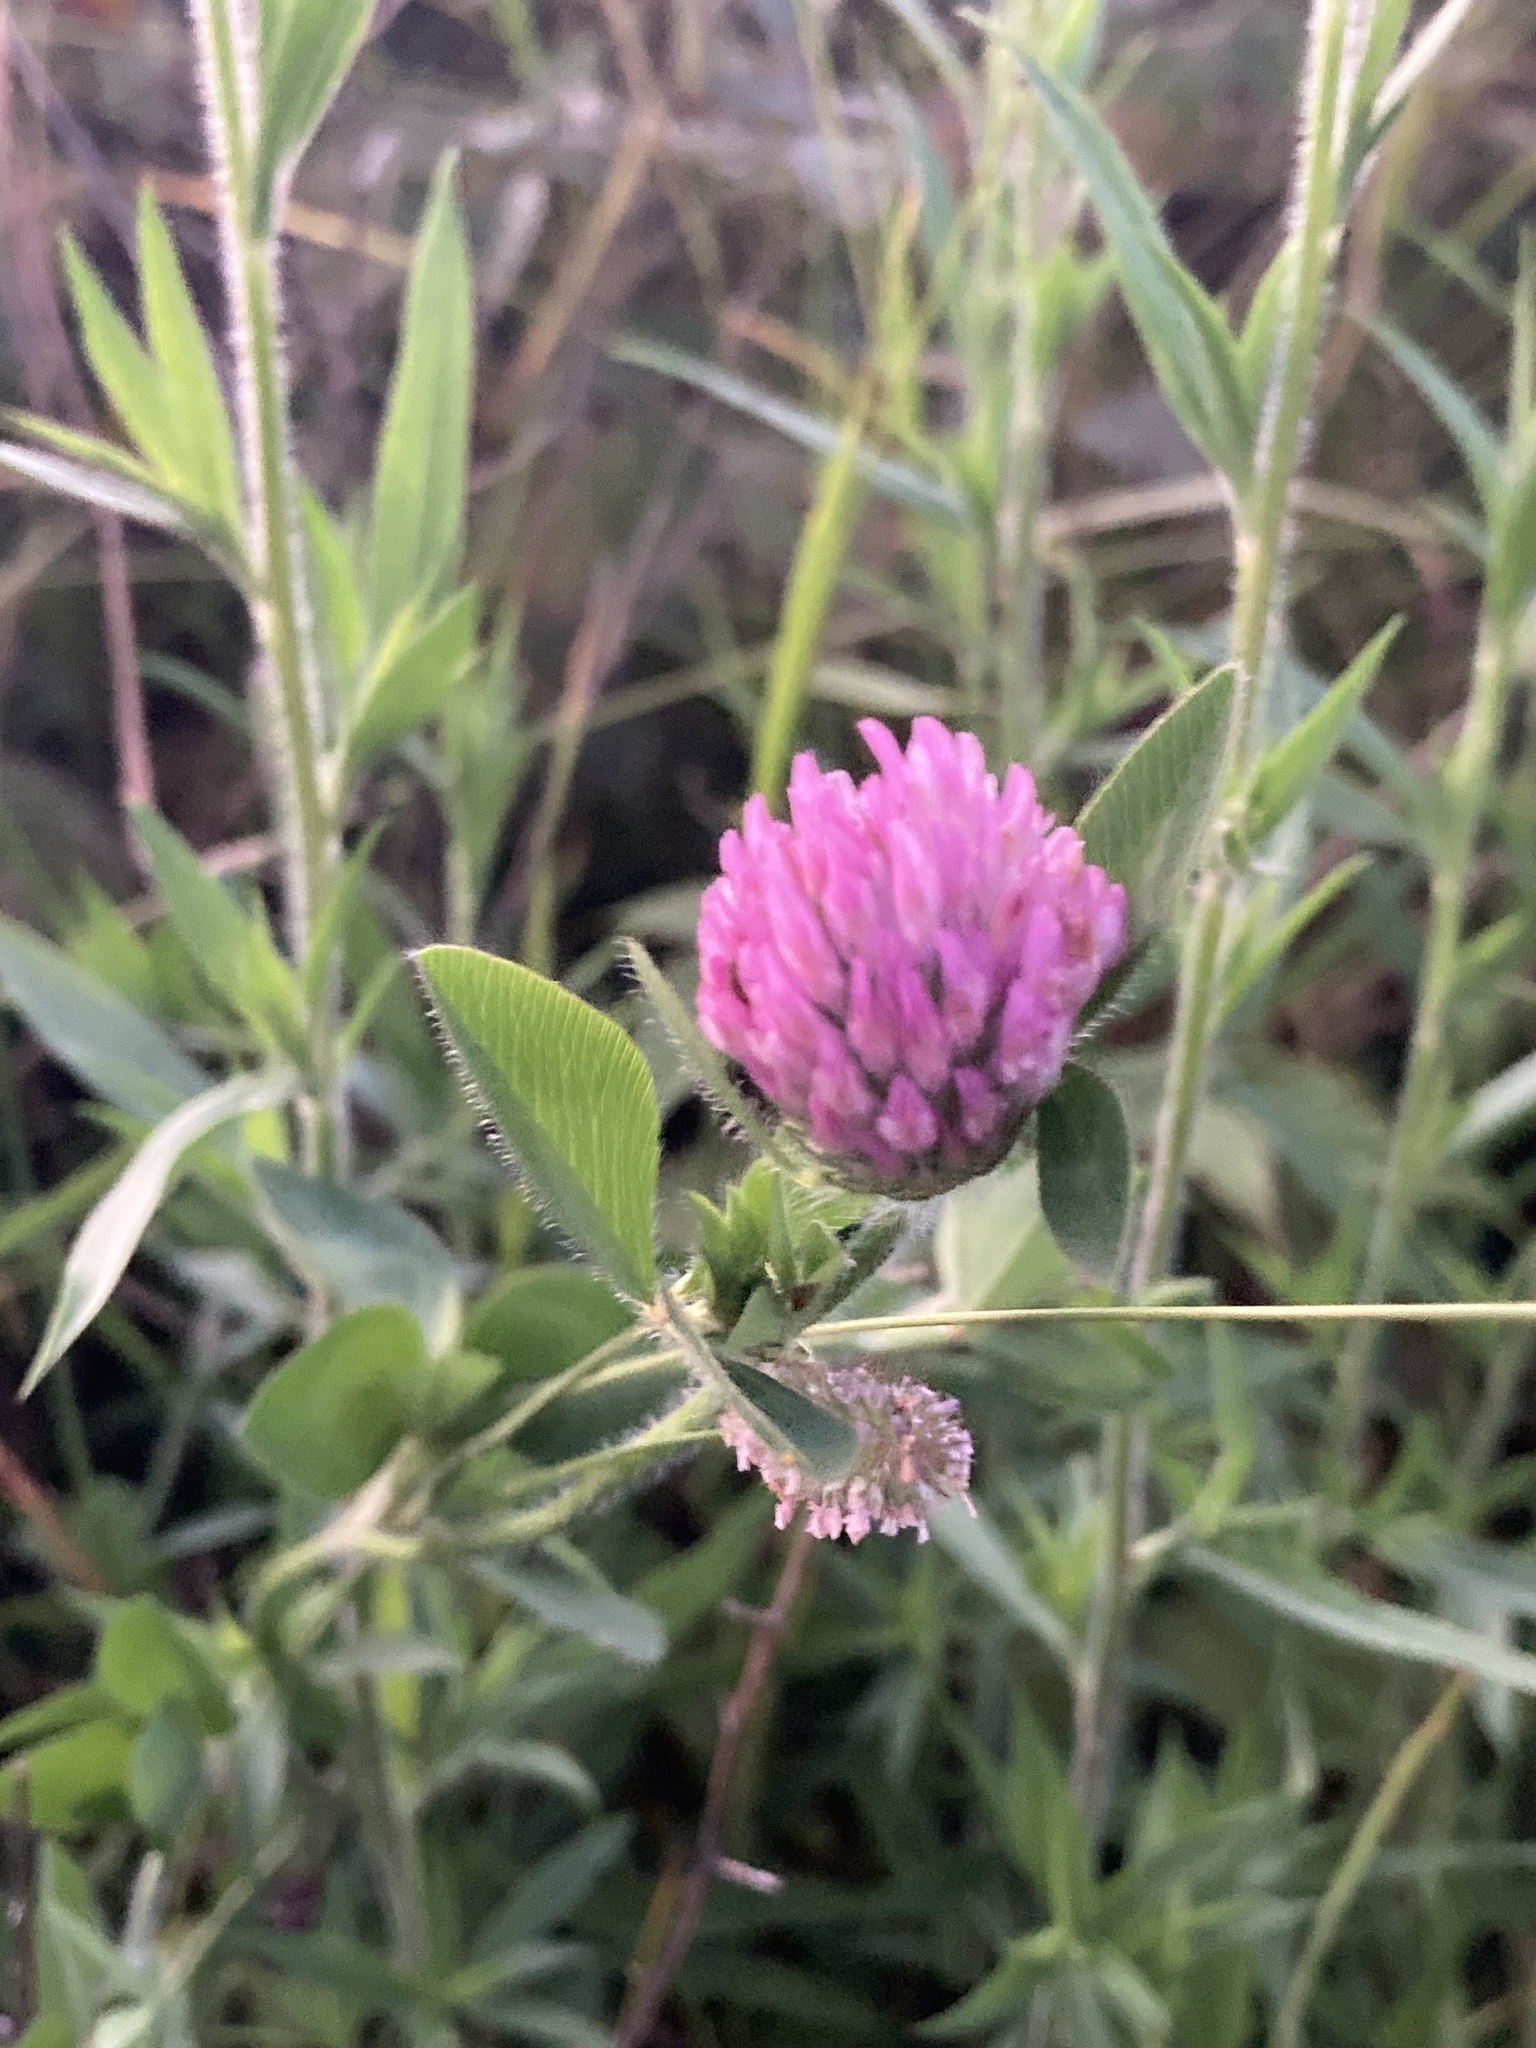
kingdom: Plantae
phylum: Tracheophyta
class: Magnoliopsida
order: Fabales
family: Fabaceae
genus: Trifolium
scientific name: Trifolium pratense
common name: Red clover
